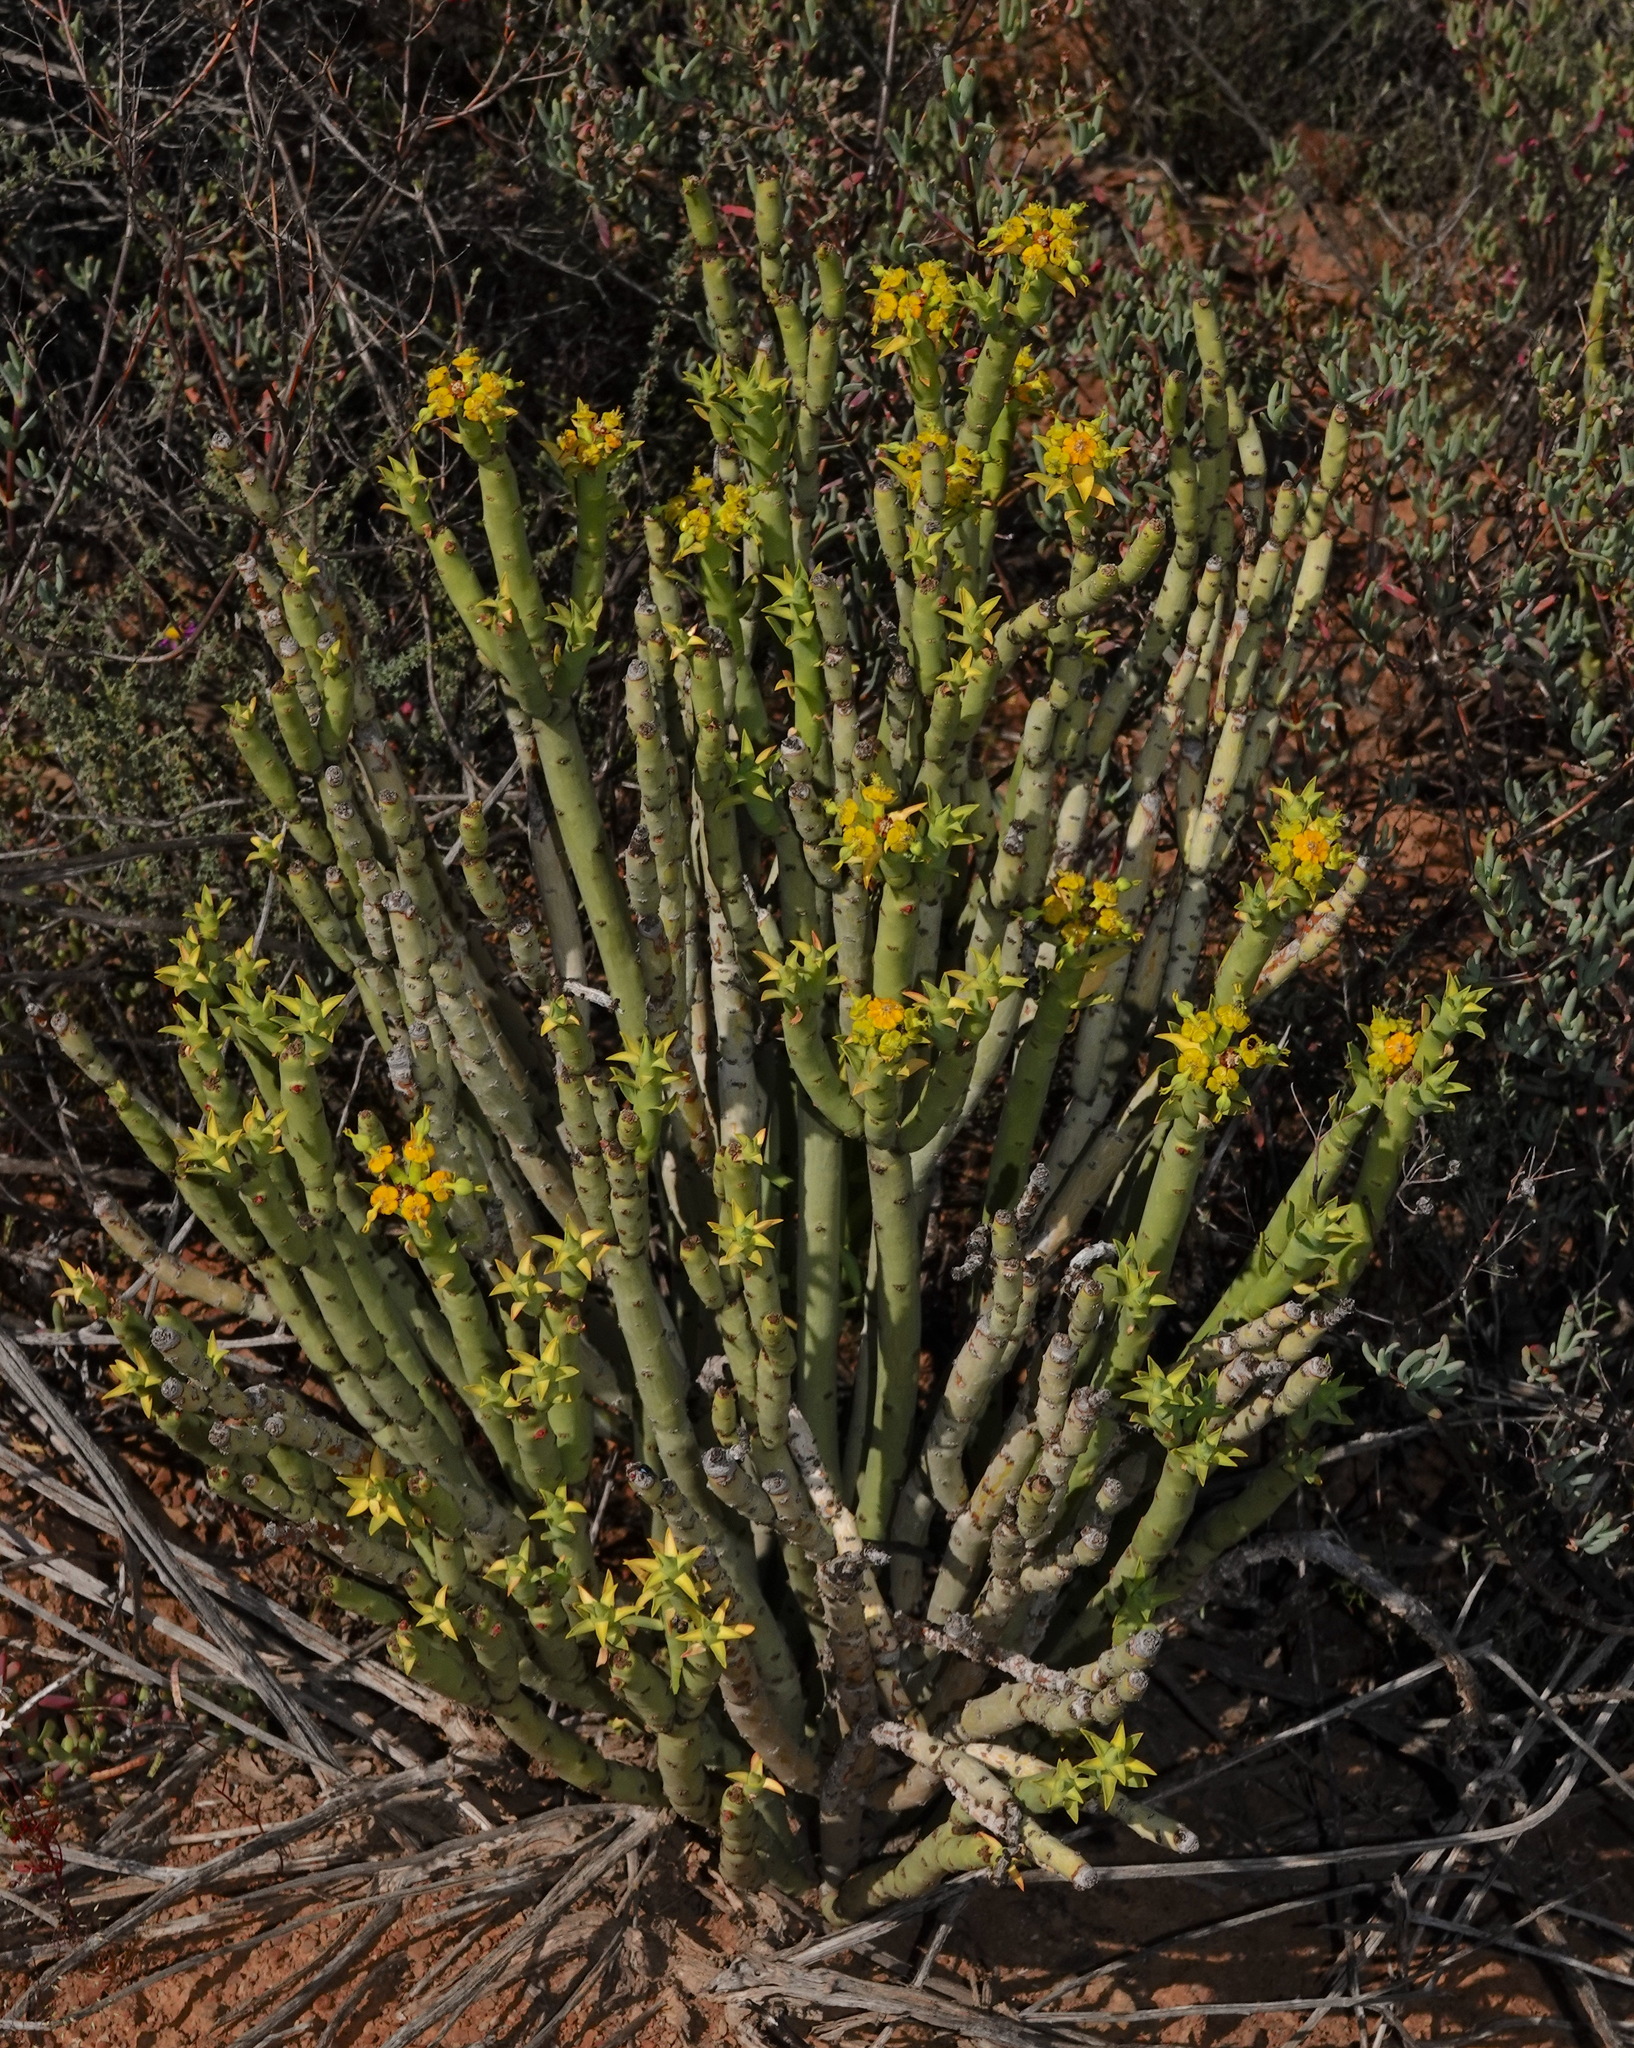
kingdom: Plantae
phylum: Tracheophyta
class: Magnoliopsida
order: Malpighiales
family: Euphorbiaceae
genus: Euphorbia
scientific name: Euphorbia mauritanica
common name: Jackal's-food
